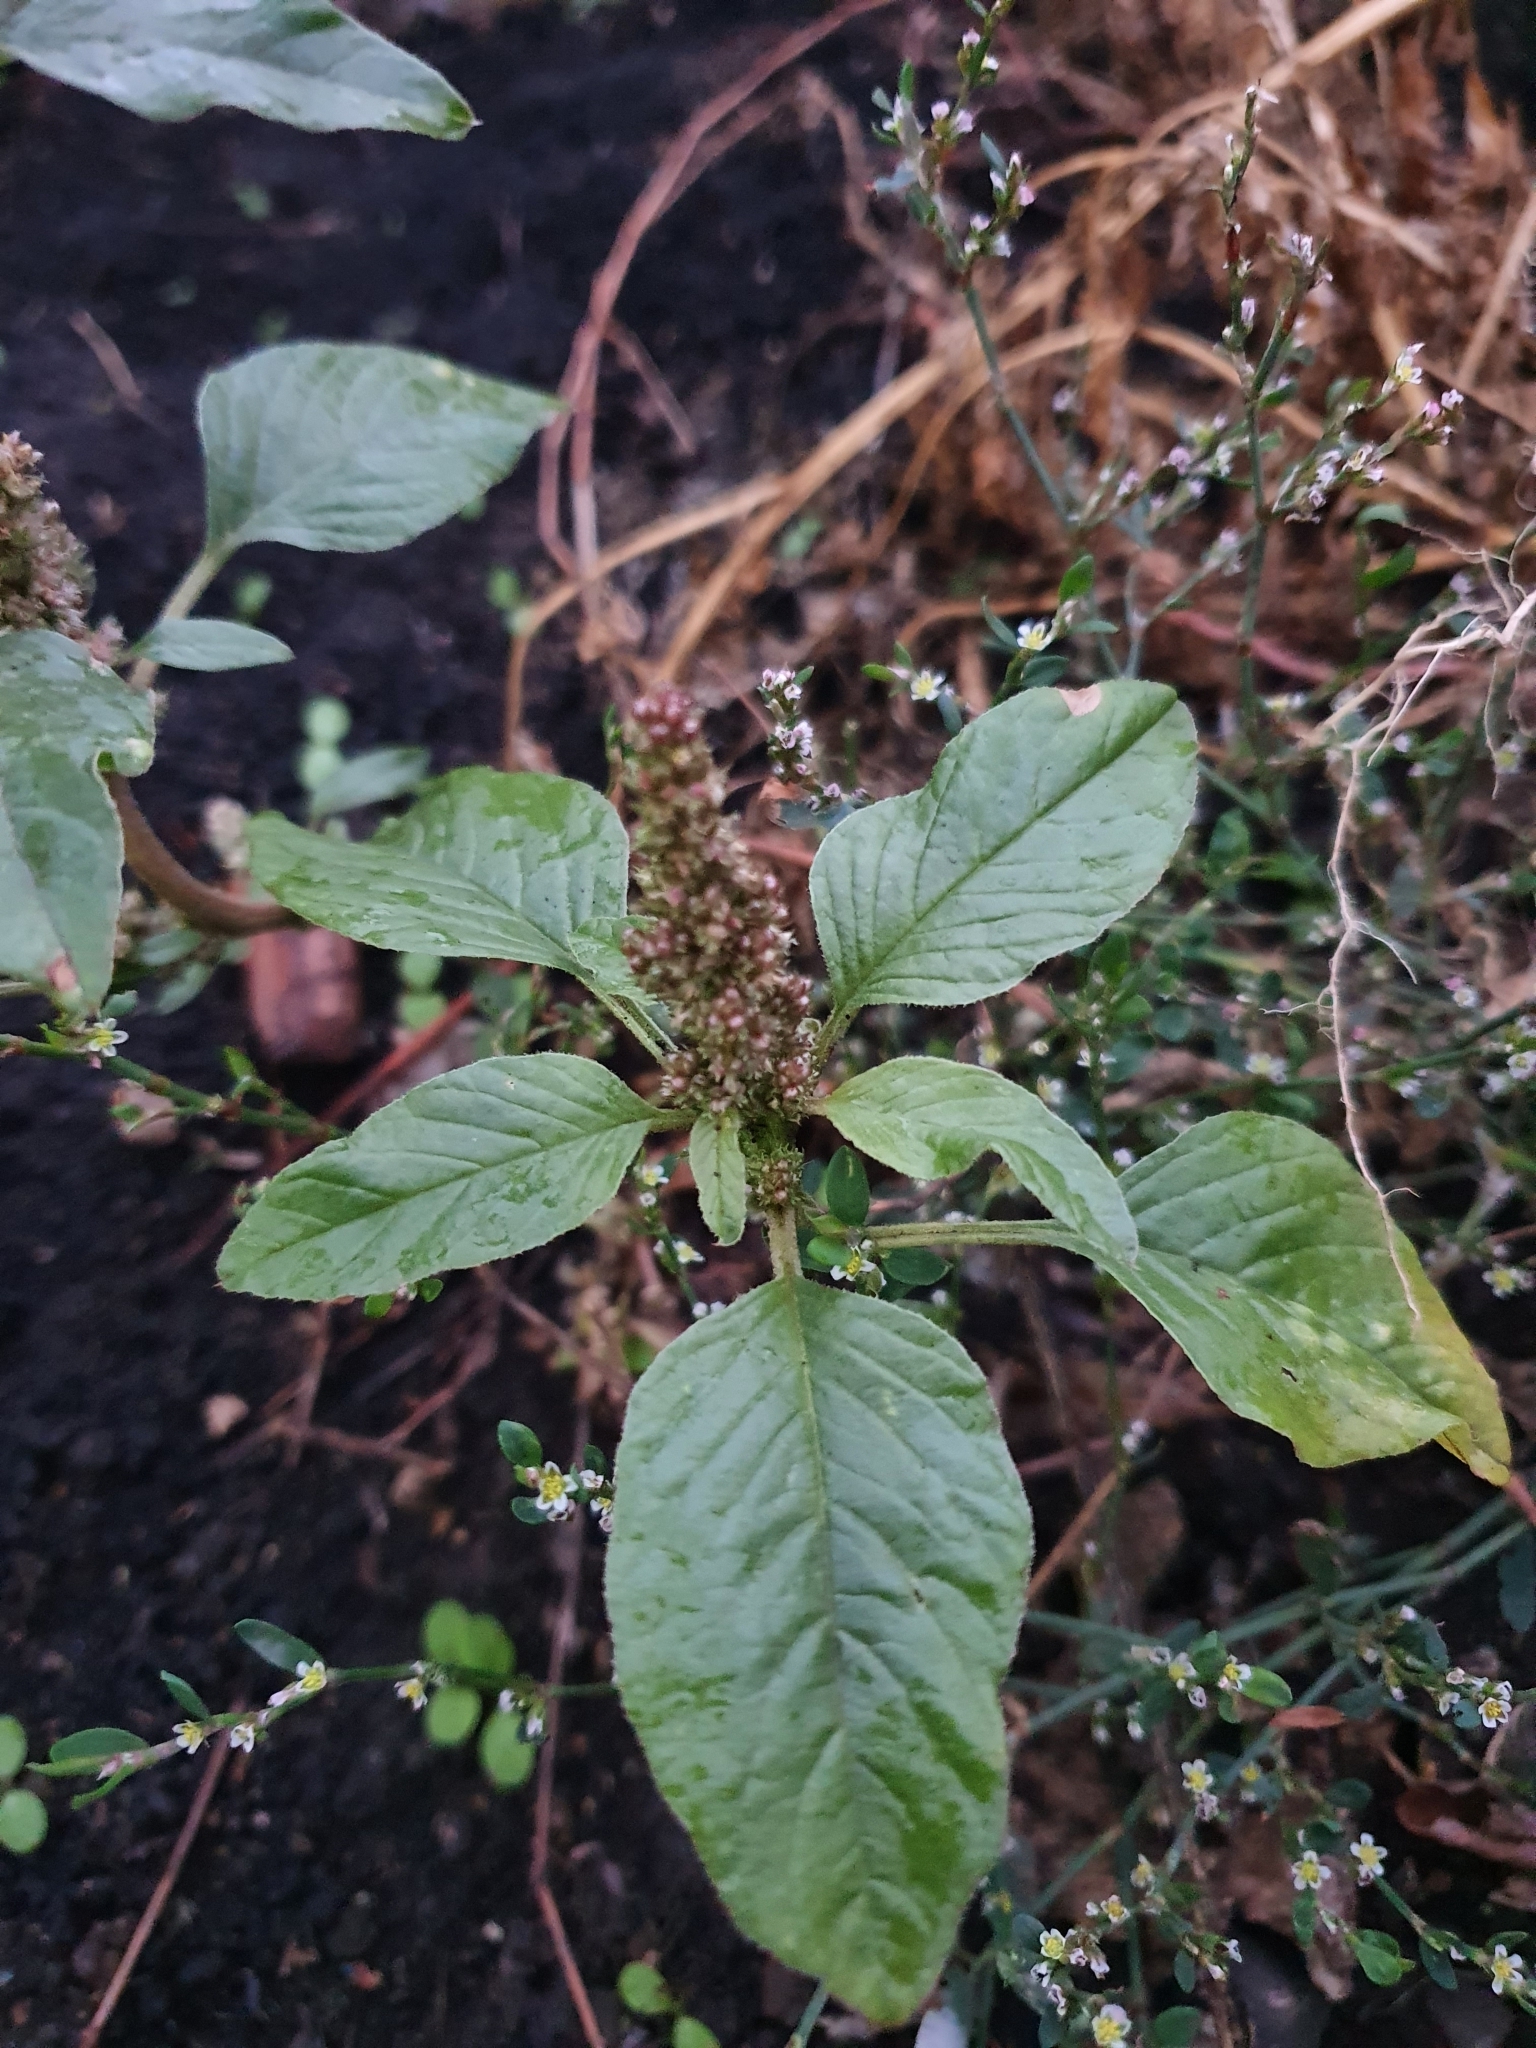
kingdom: Plantae
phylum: Tracheophyta
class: Magnoliopsida
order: Caryophyllales
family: Amaranthaceae
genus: Amaranthus
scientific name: Amaranthus retroflexus
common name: Redroot amaranth
